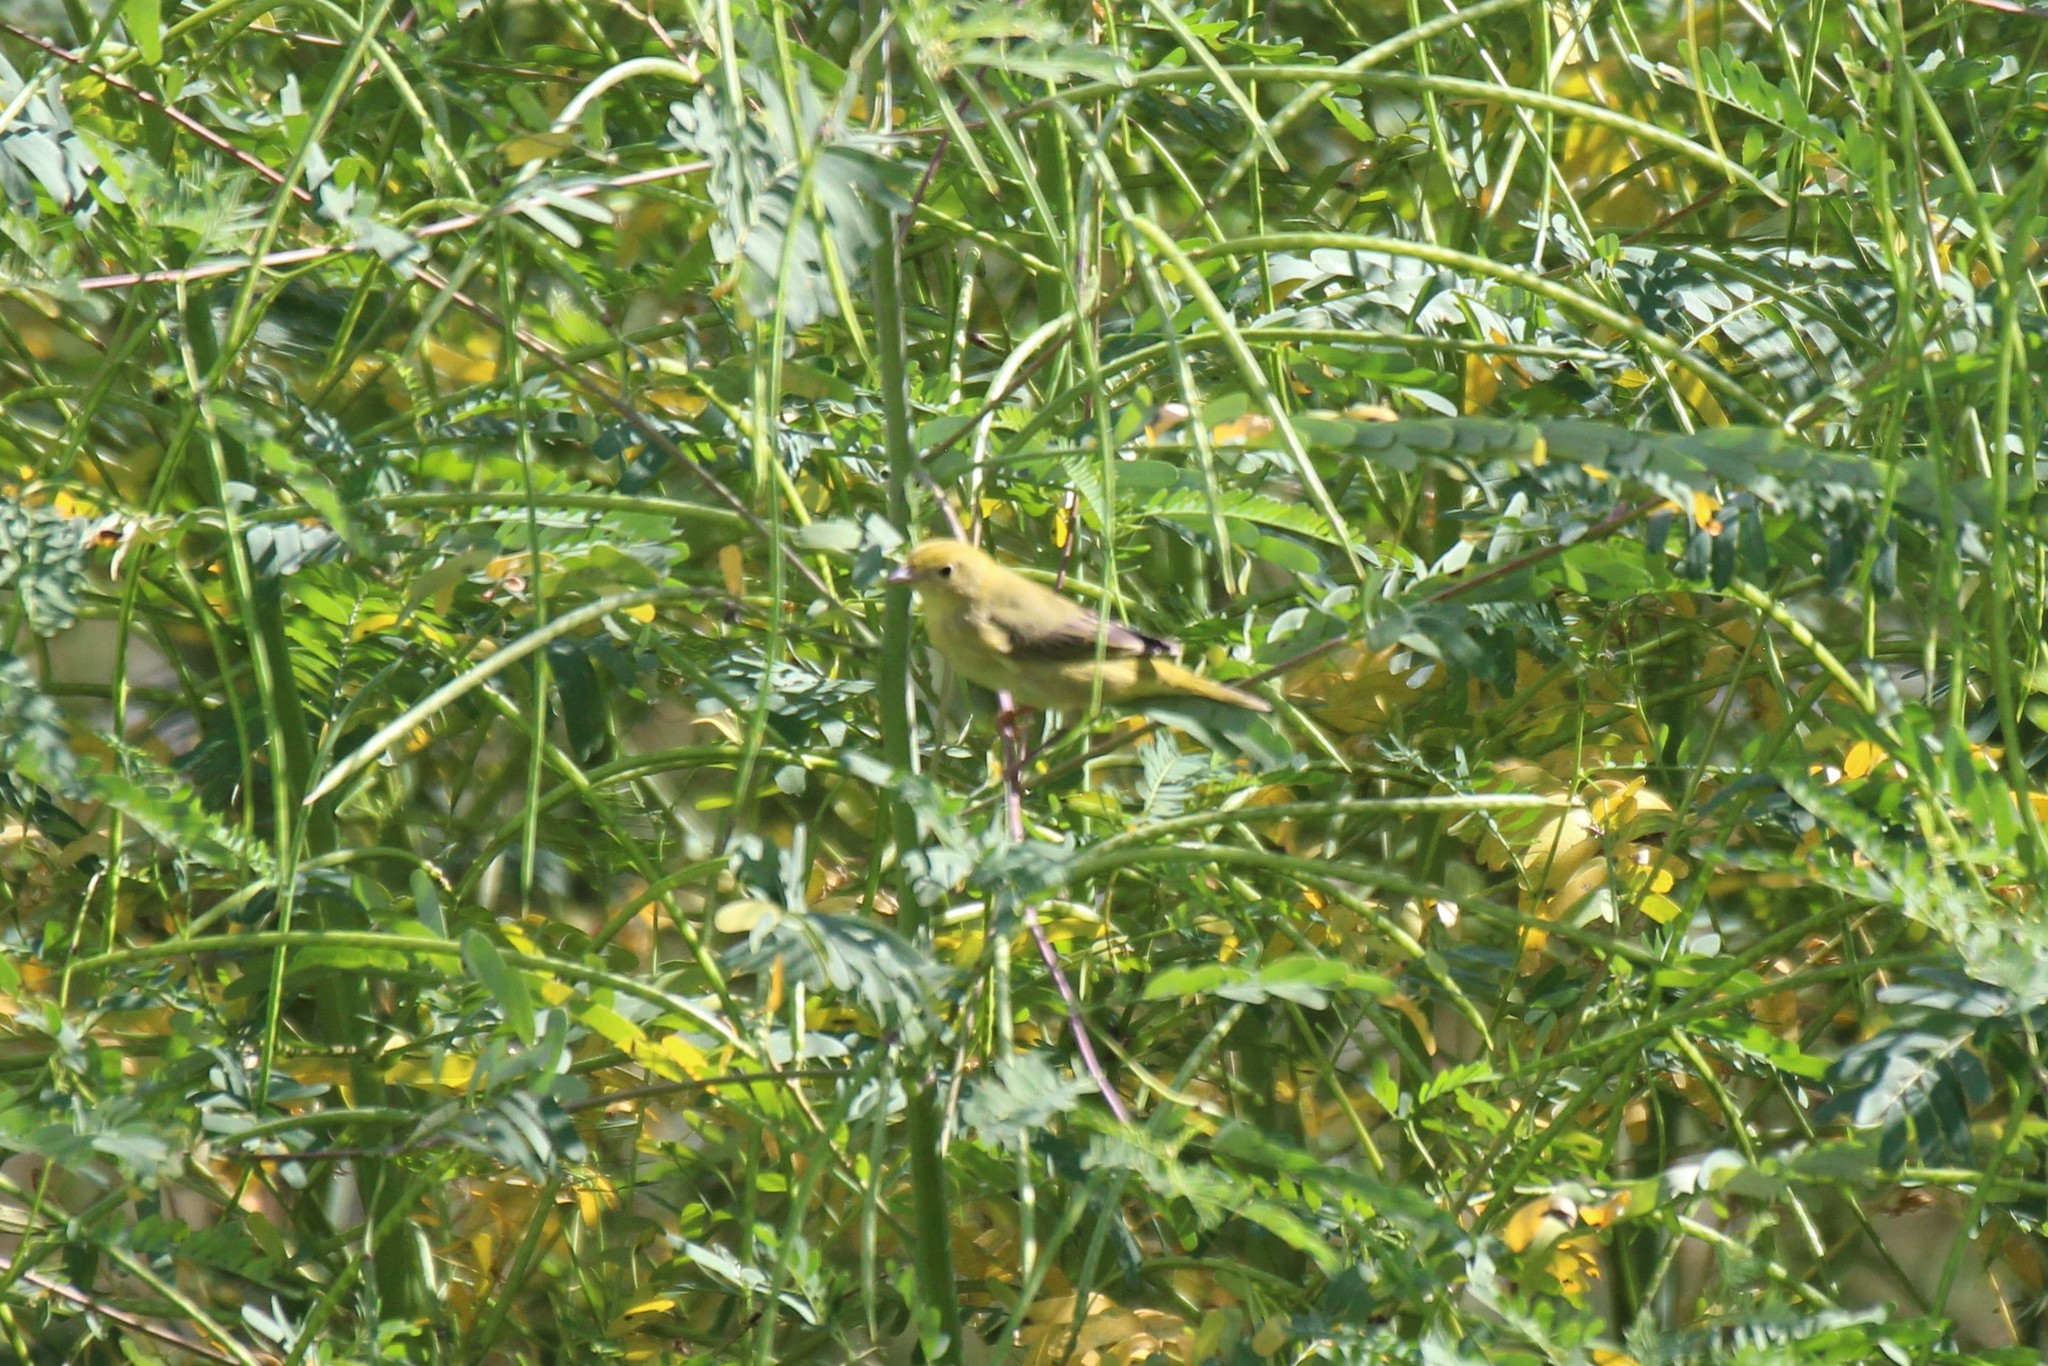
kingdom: Animalia
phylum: Chordata
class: Aves
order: Passeriformes
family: Parulidae
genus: Setophaga
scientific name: Setophaga petechia
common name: Yellow warbler
